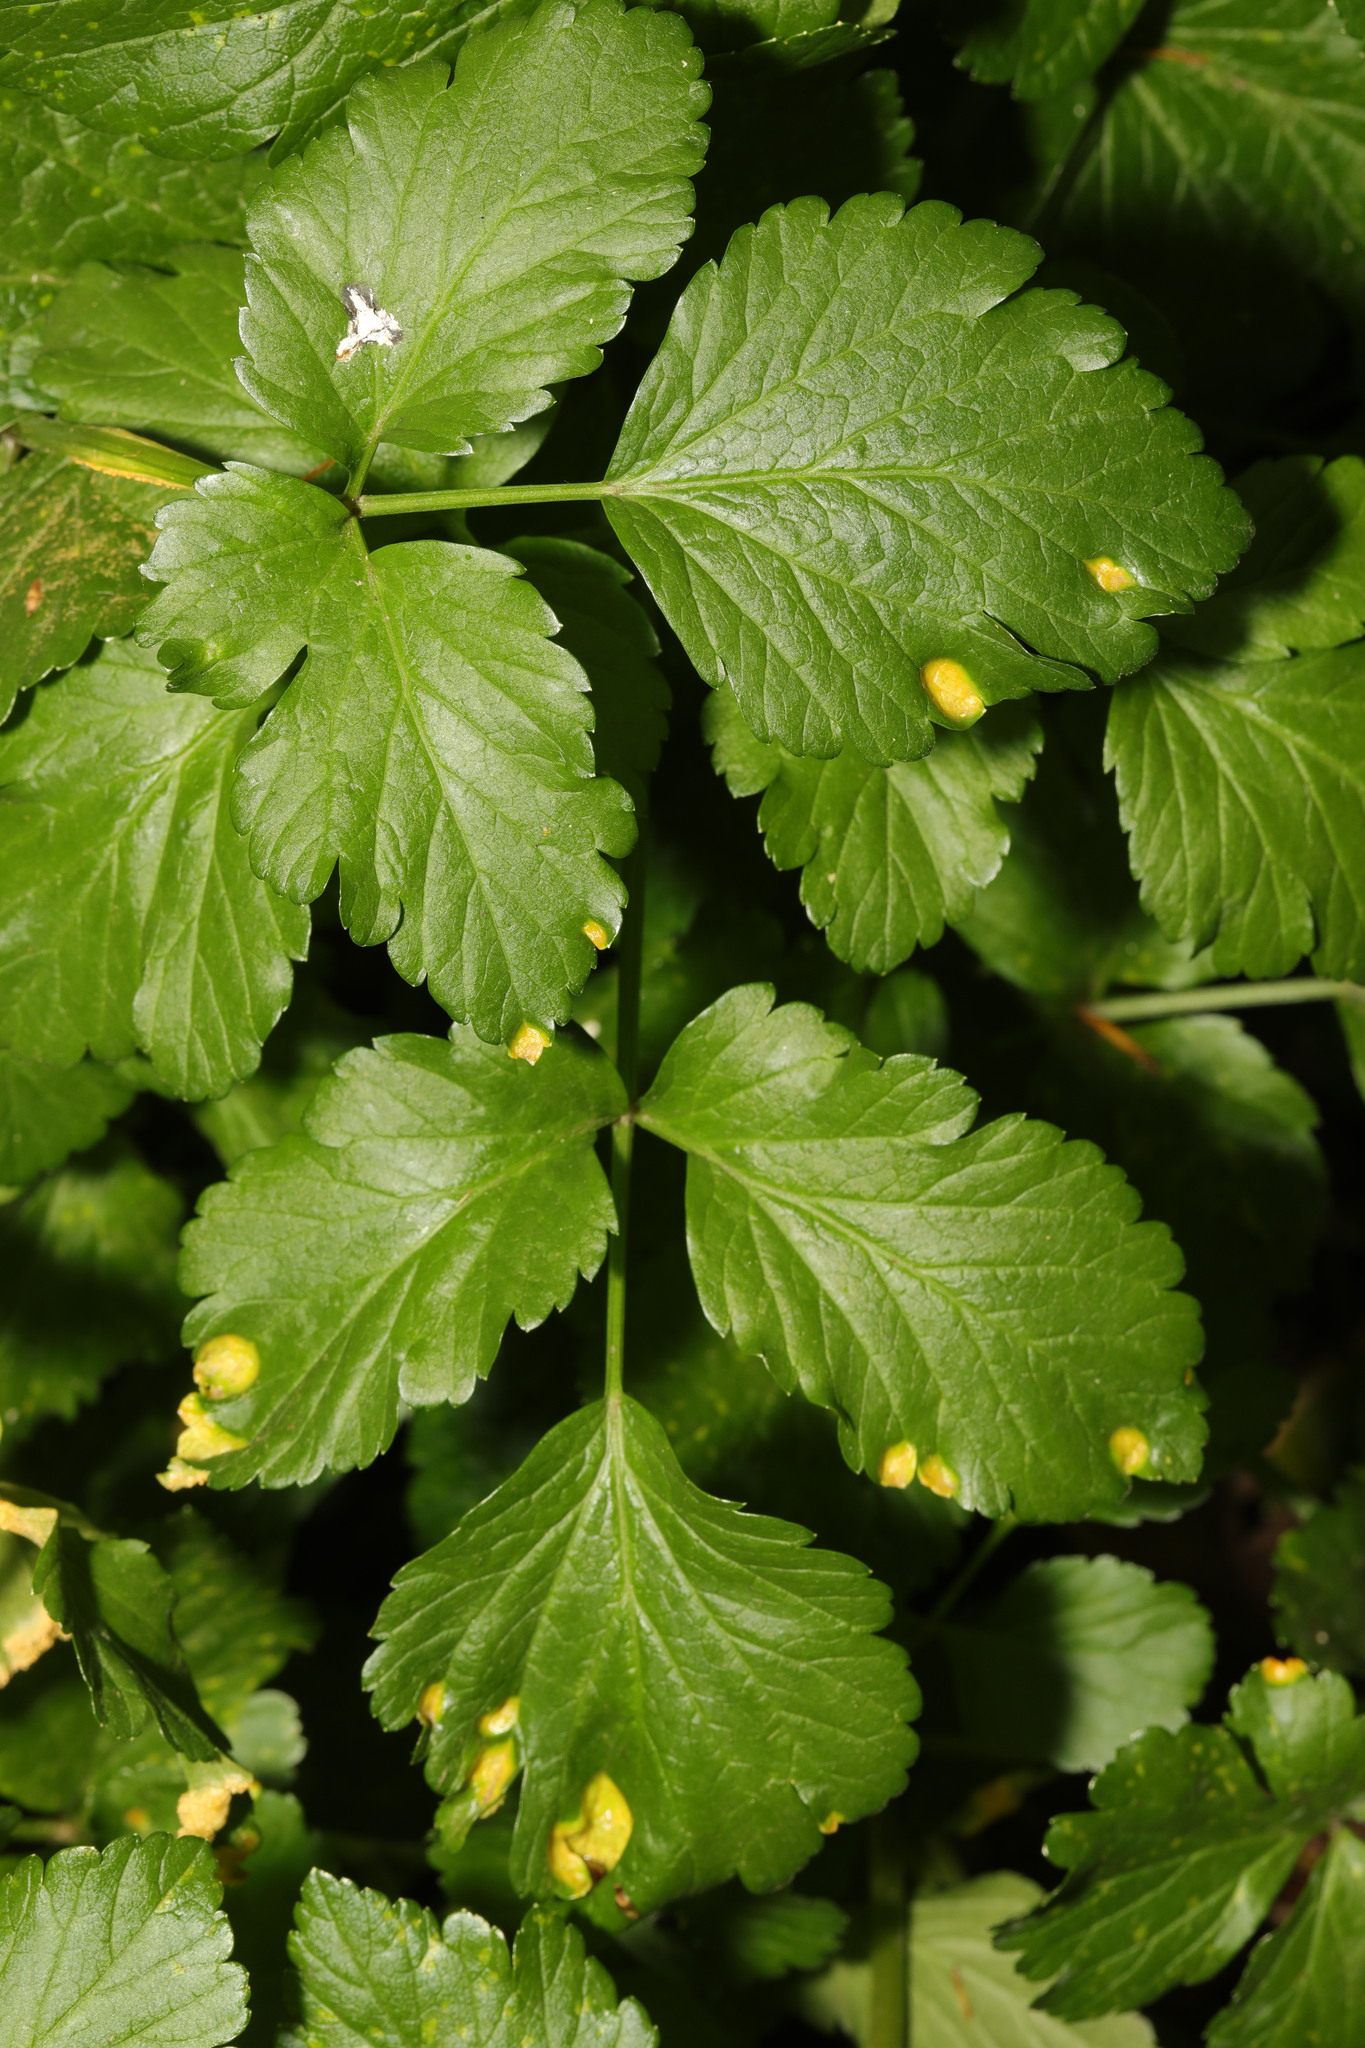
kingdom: Plantae
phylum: Tracheophyta
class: Magnoliopsida
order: Apiales
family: Apiaceae
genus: Smyrnium
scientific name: Smyrnium olusatrum
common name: Alexanders
